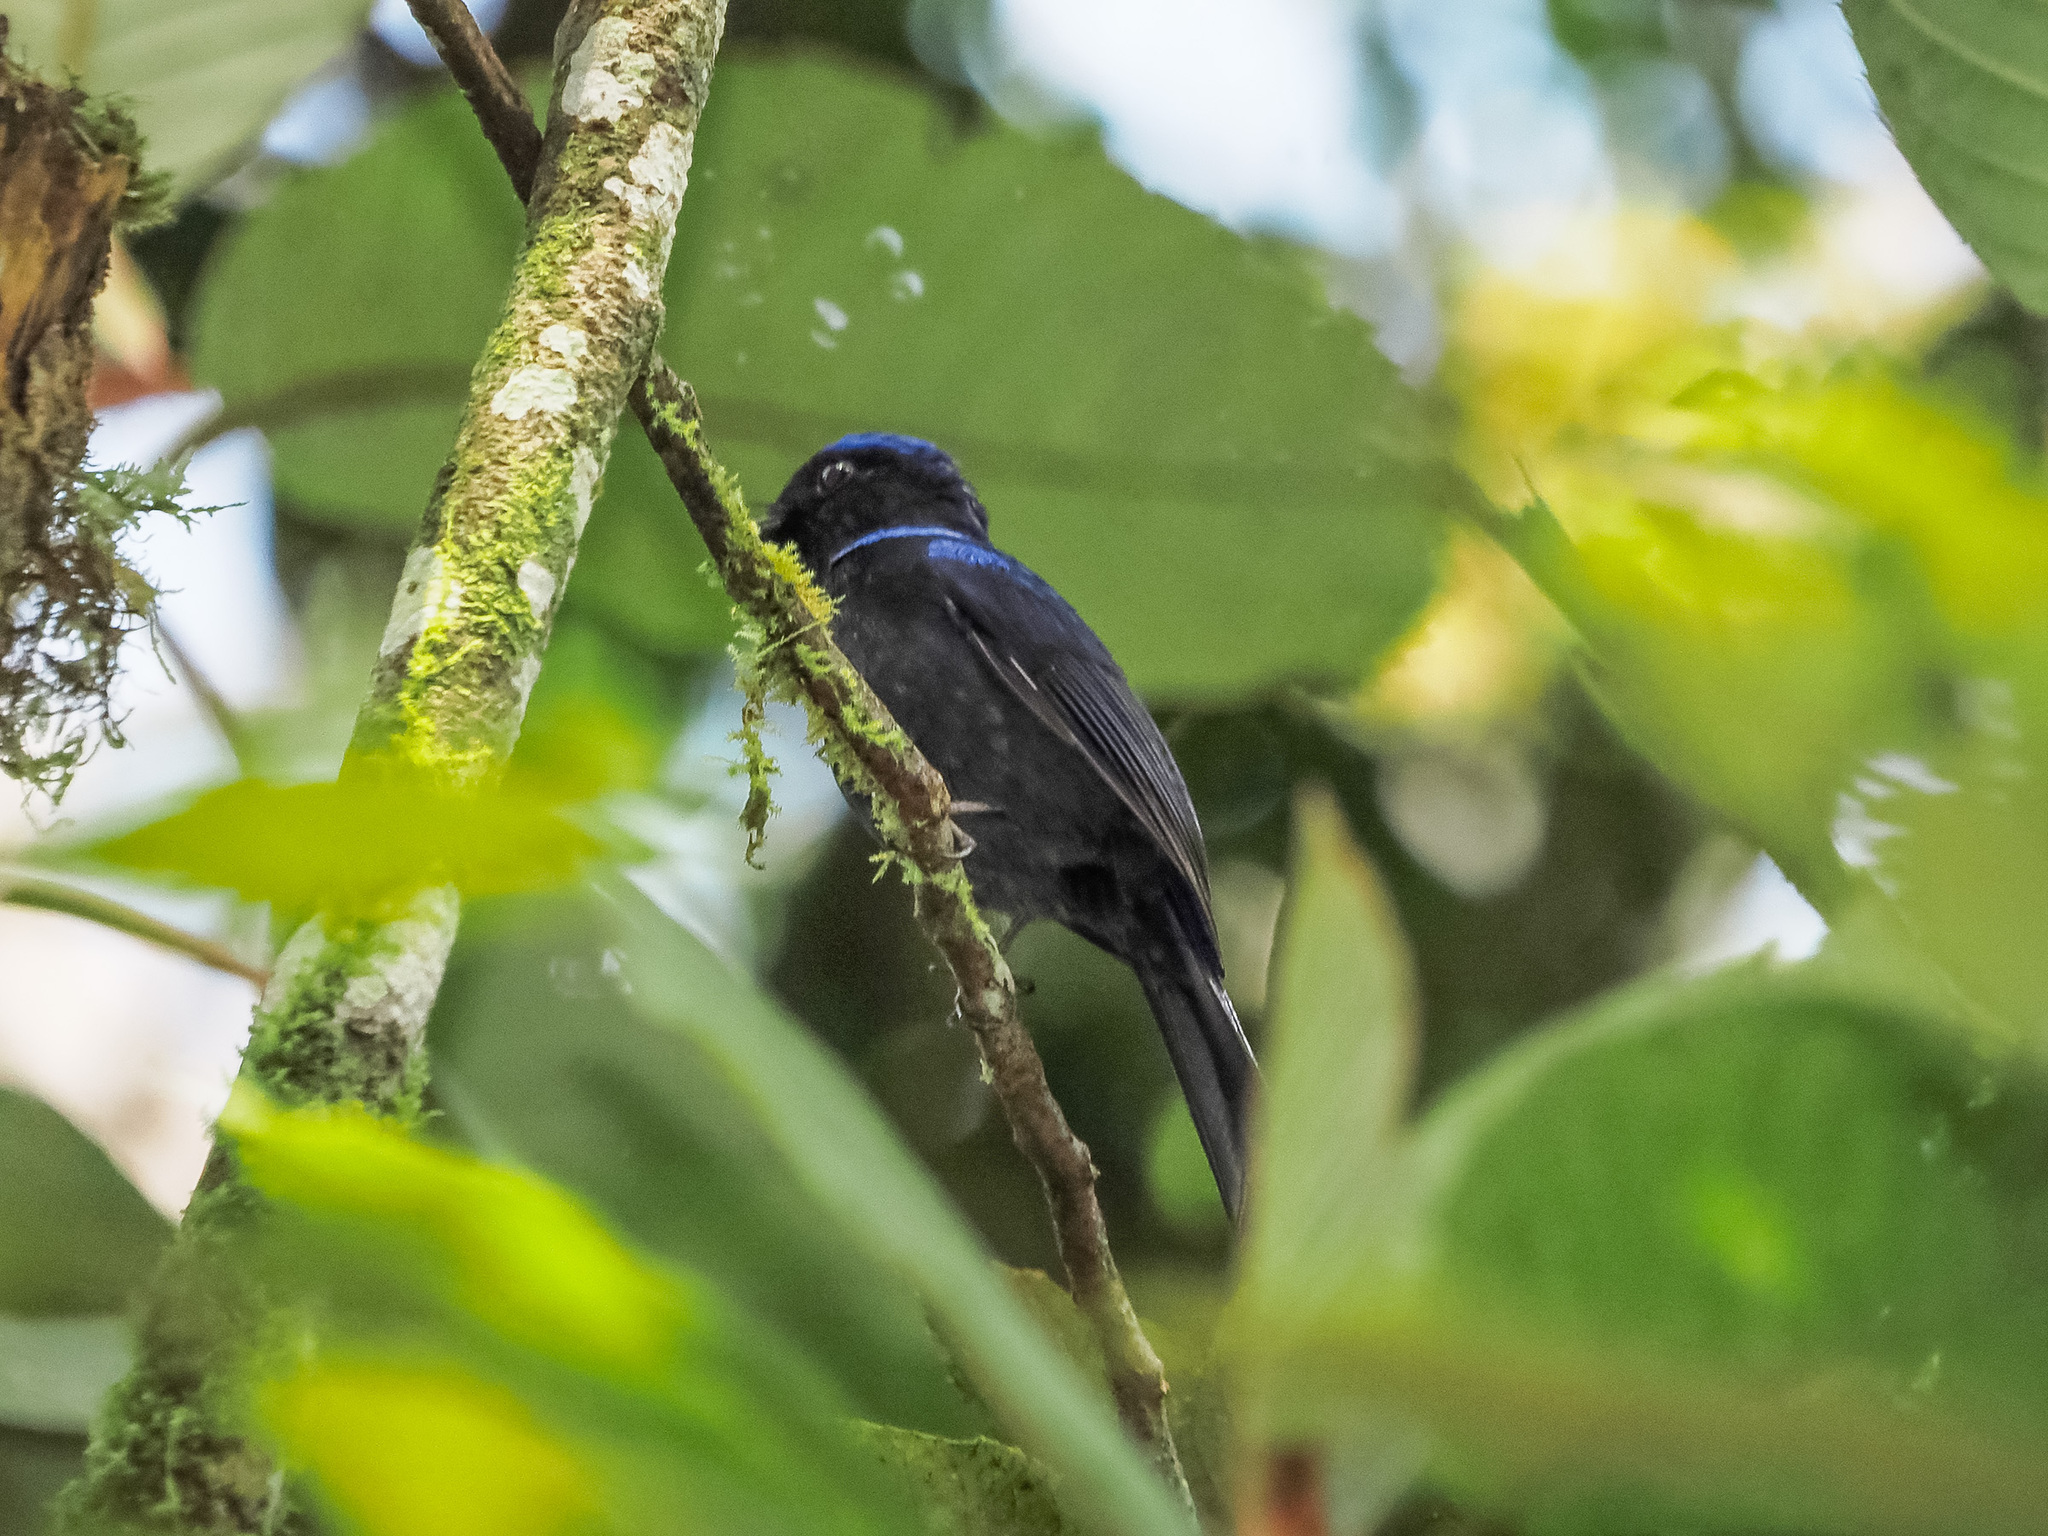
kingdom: Animalia
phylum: Chordata
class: Aves
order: Passeriformes
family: Muscicapidae
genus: Niltava
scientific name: Niltava grandis
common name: Large niltava
